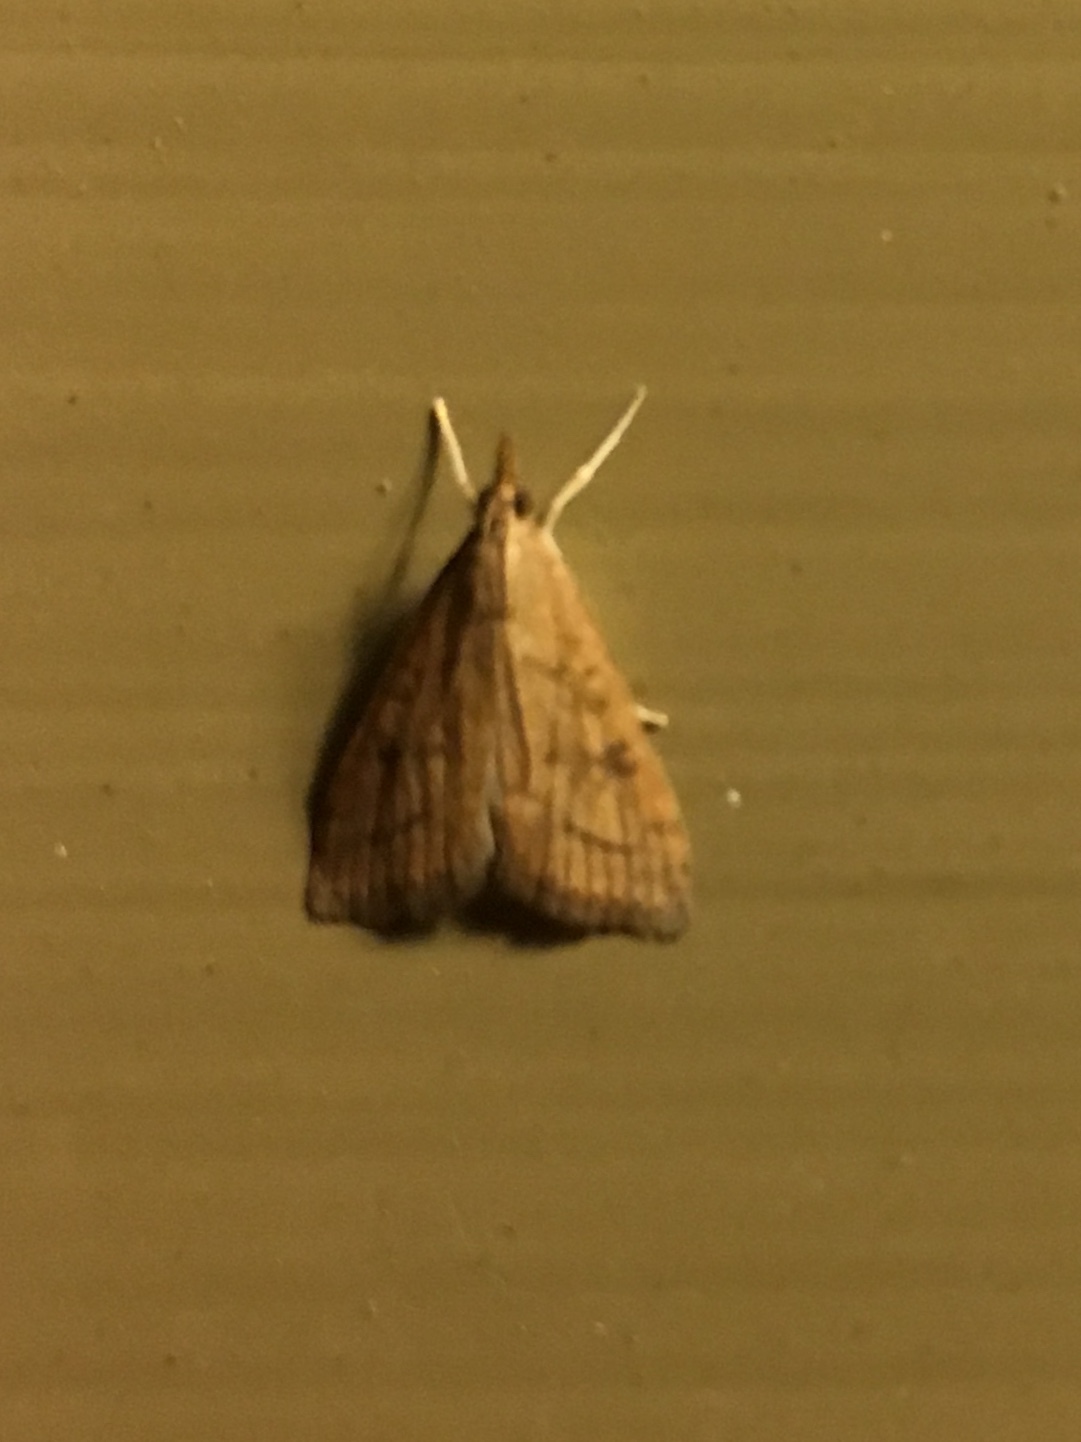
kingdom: Animalia
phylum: Arthropoda
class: Insecta
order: Lepidoptera
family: Crambidae
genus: Udea
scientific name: Udea rubigalis
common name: Celery leaftier moth
